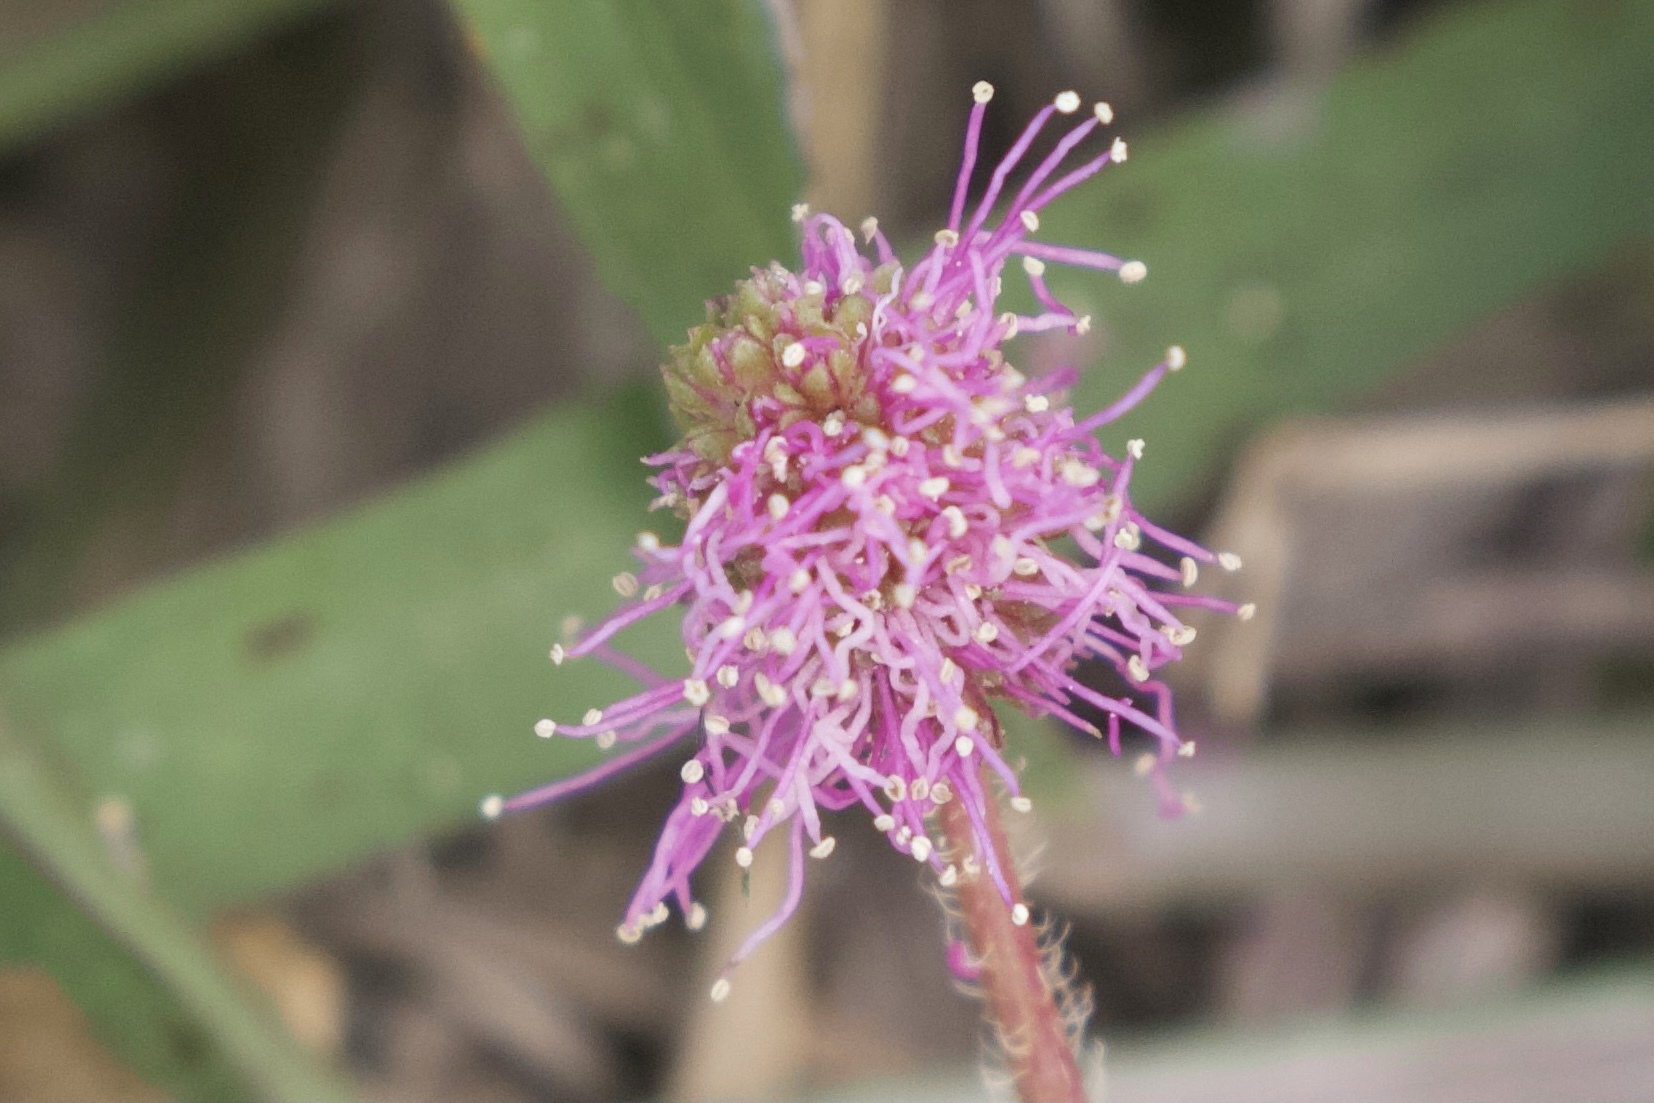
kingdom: Plantae
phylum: Tracheophyta
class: Magnoliopsida
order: Fabales
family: Fabaceae
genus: Mimosa
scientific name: Mimosa strigillosa
